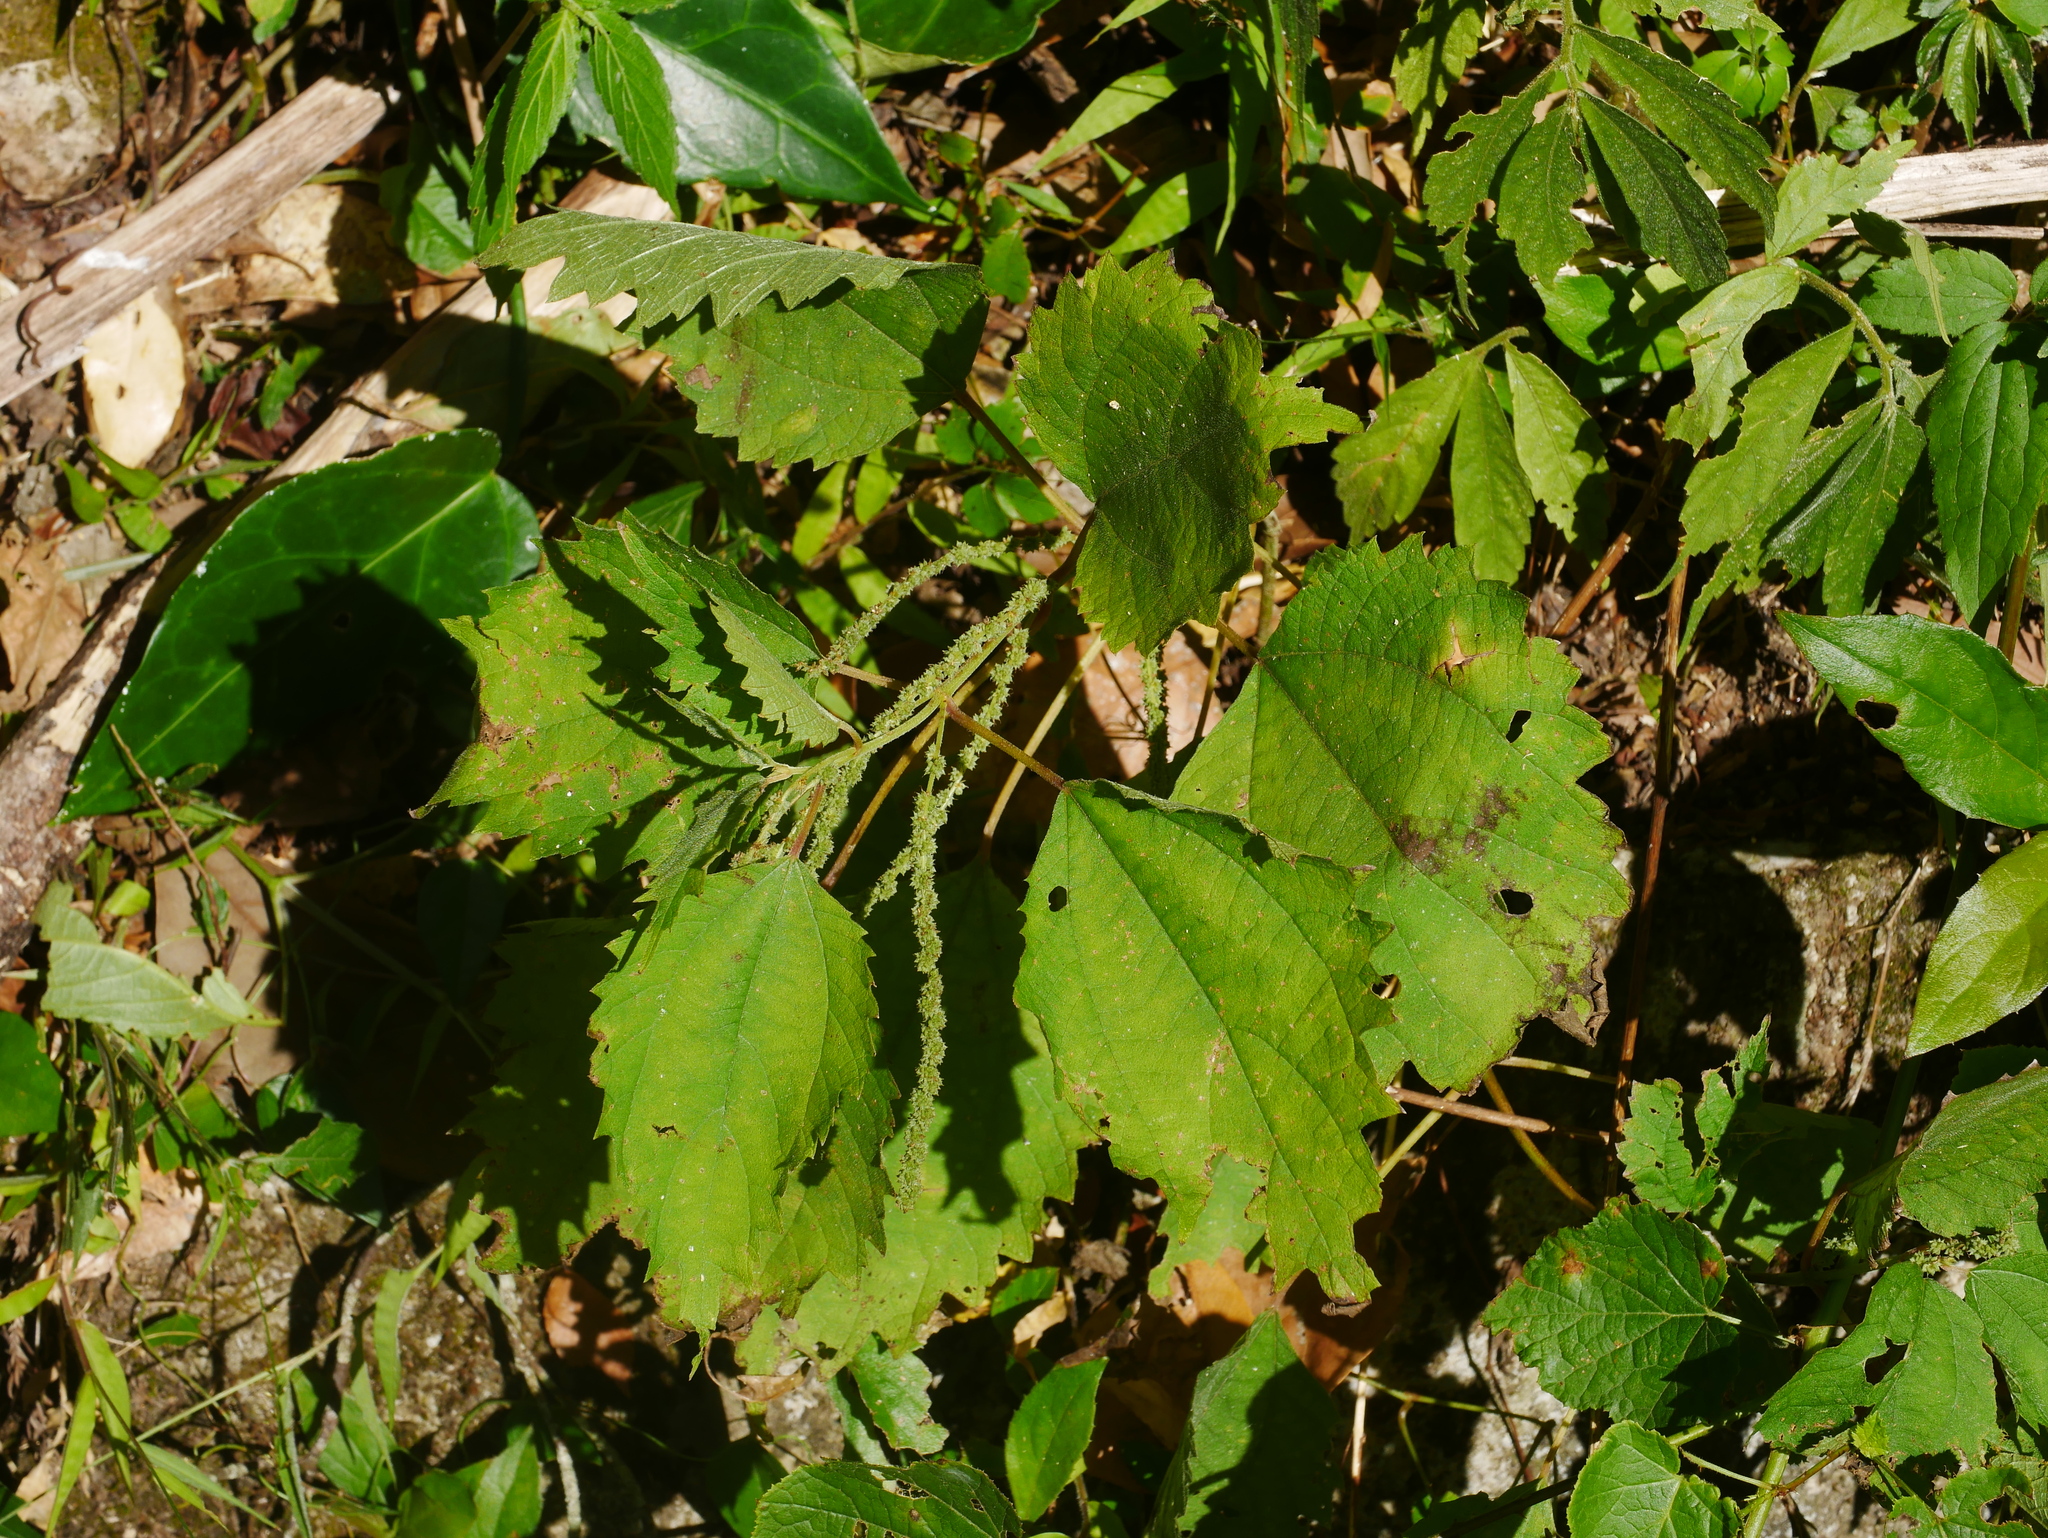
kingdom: Plantae
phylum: Tracheophyta
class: Magnoliopsida
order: Rosales
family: Urticaceae
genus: Boehmeria
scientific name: Boehmeria japonica
